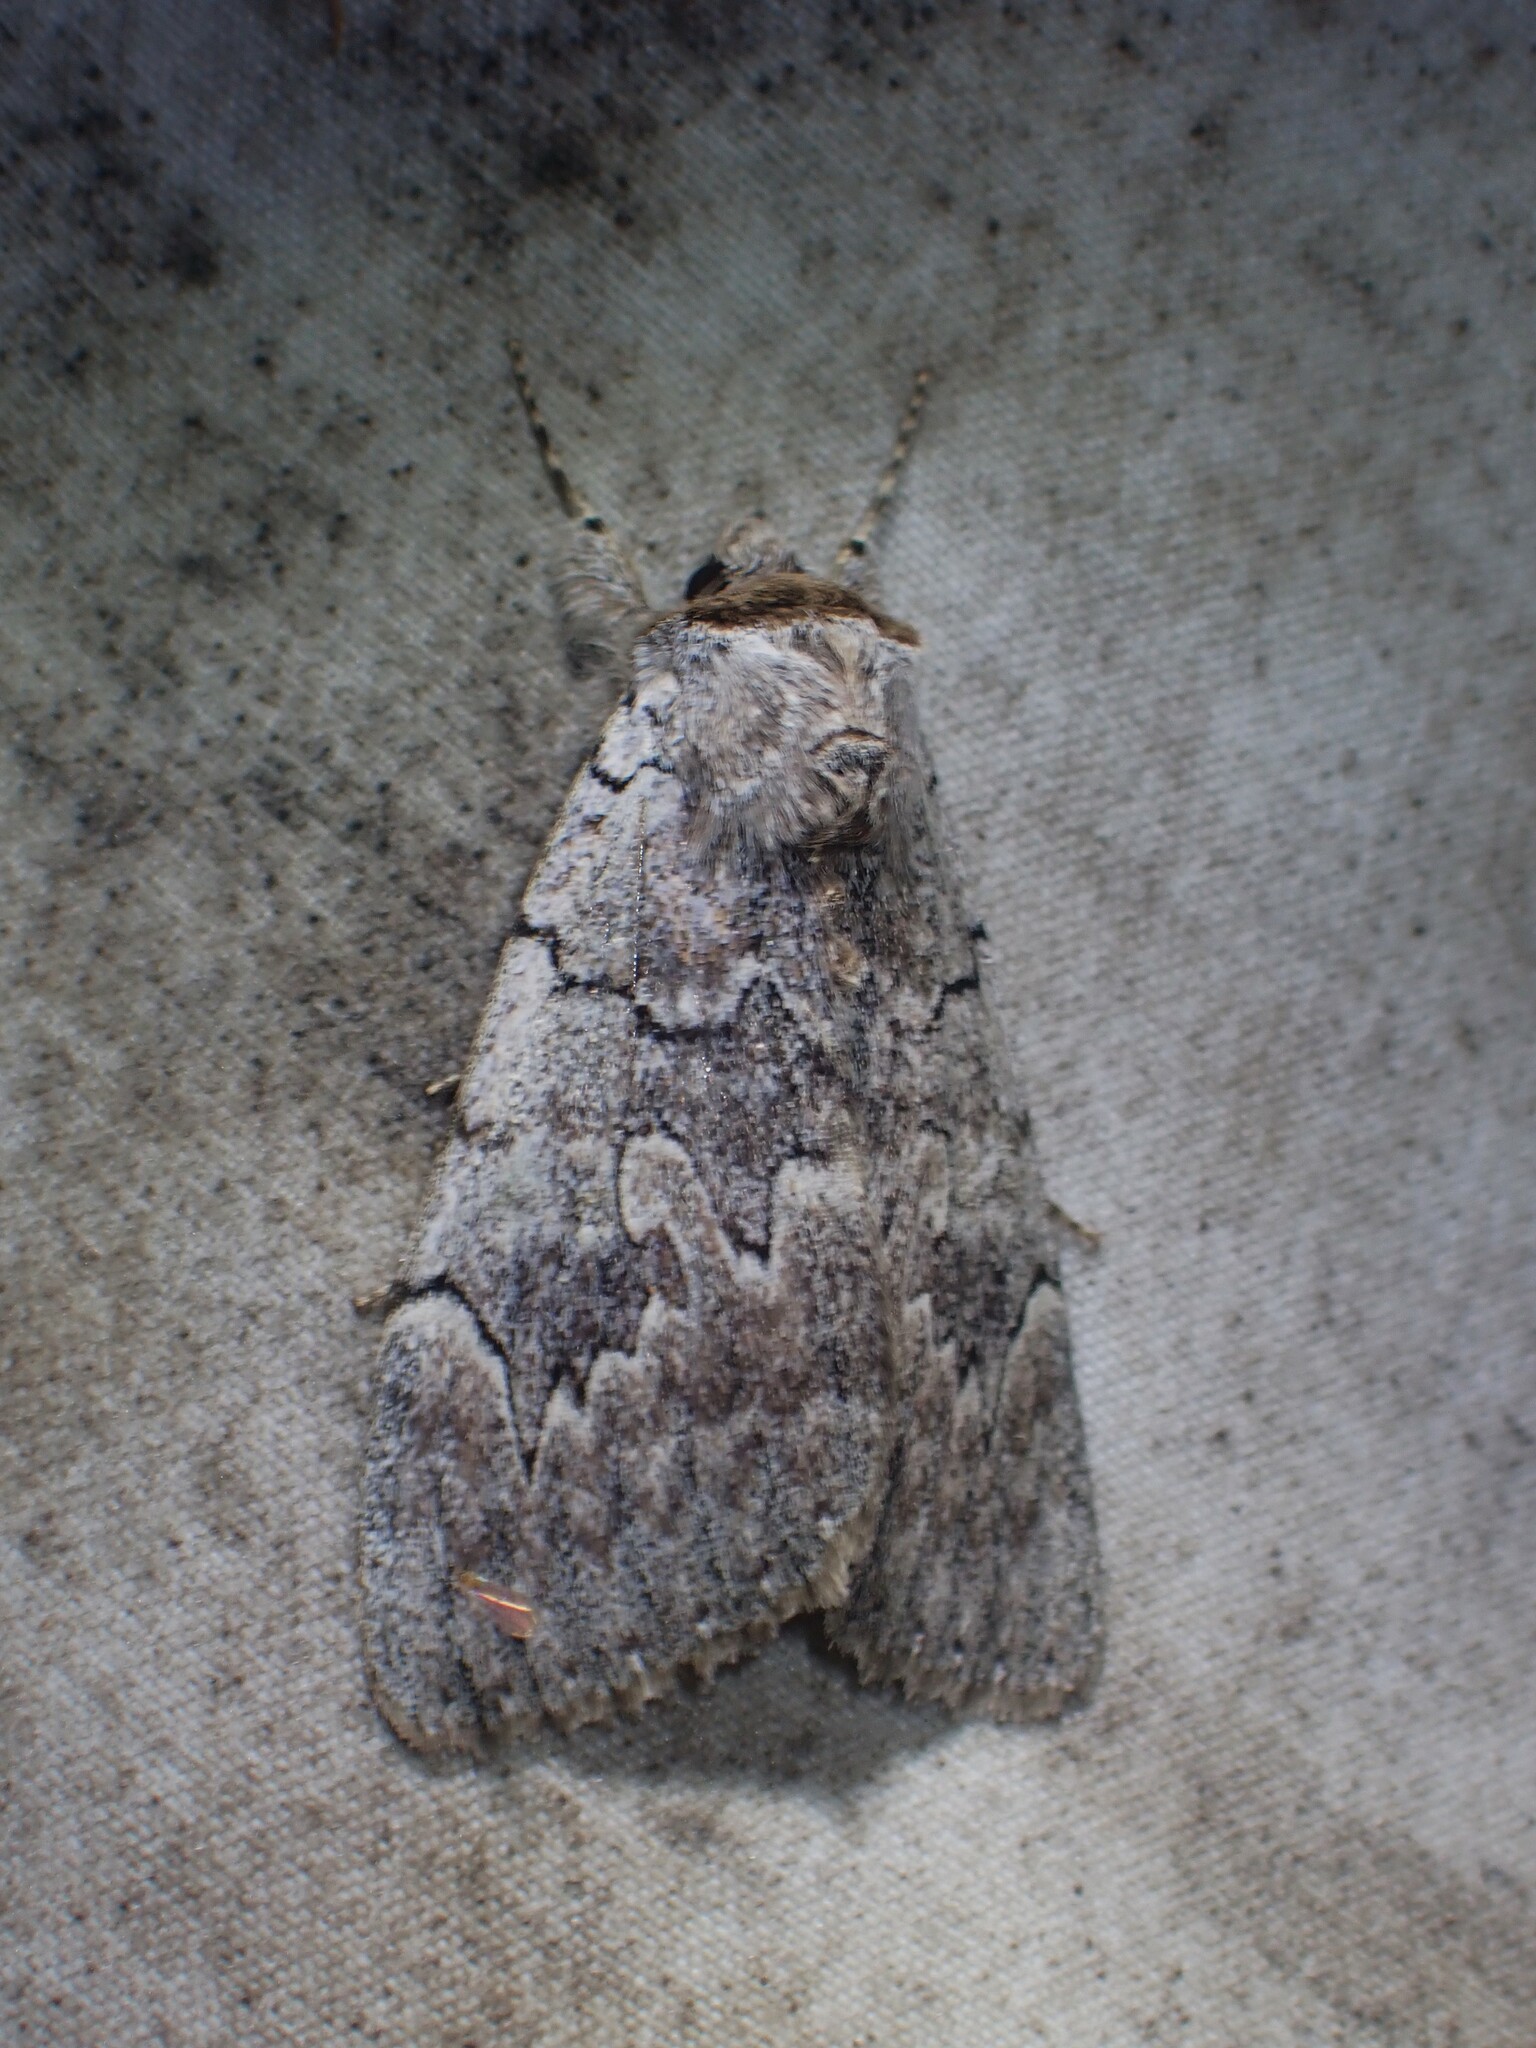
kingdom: Animalia
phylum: Arthropoda
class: Insecta
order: Lepidoptera
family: Erebidae
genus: Catocala
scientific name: Catocala concumbens
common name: Pink underwing
